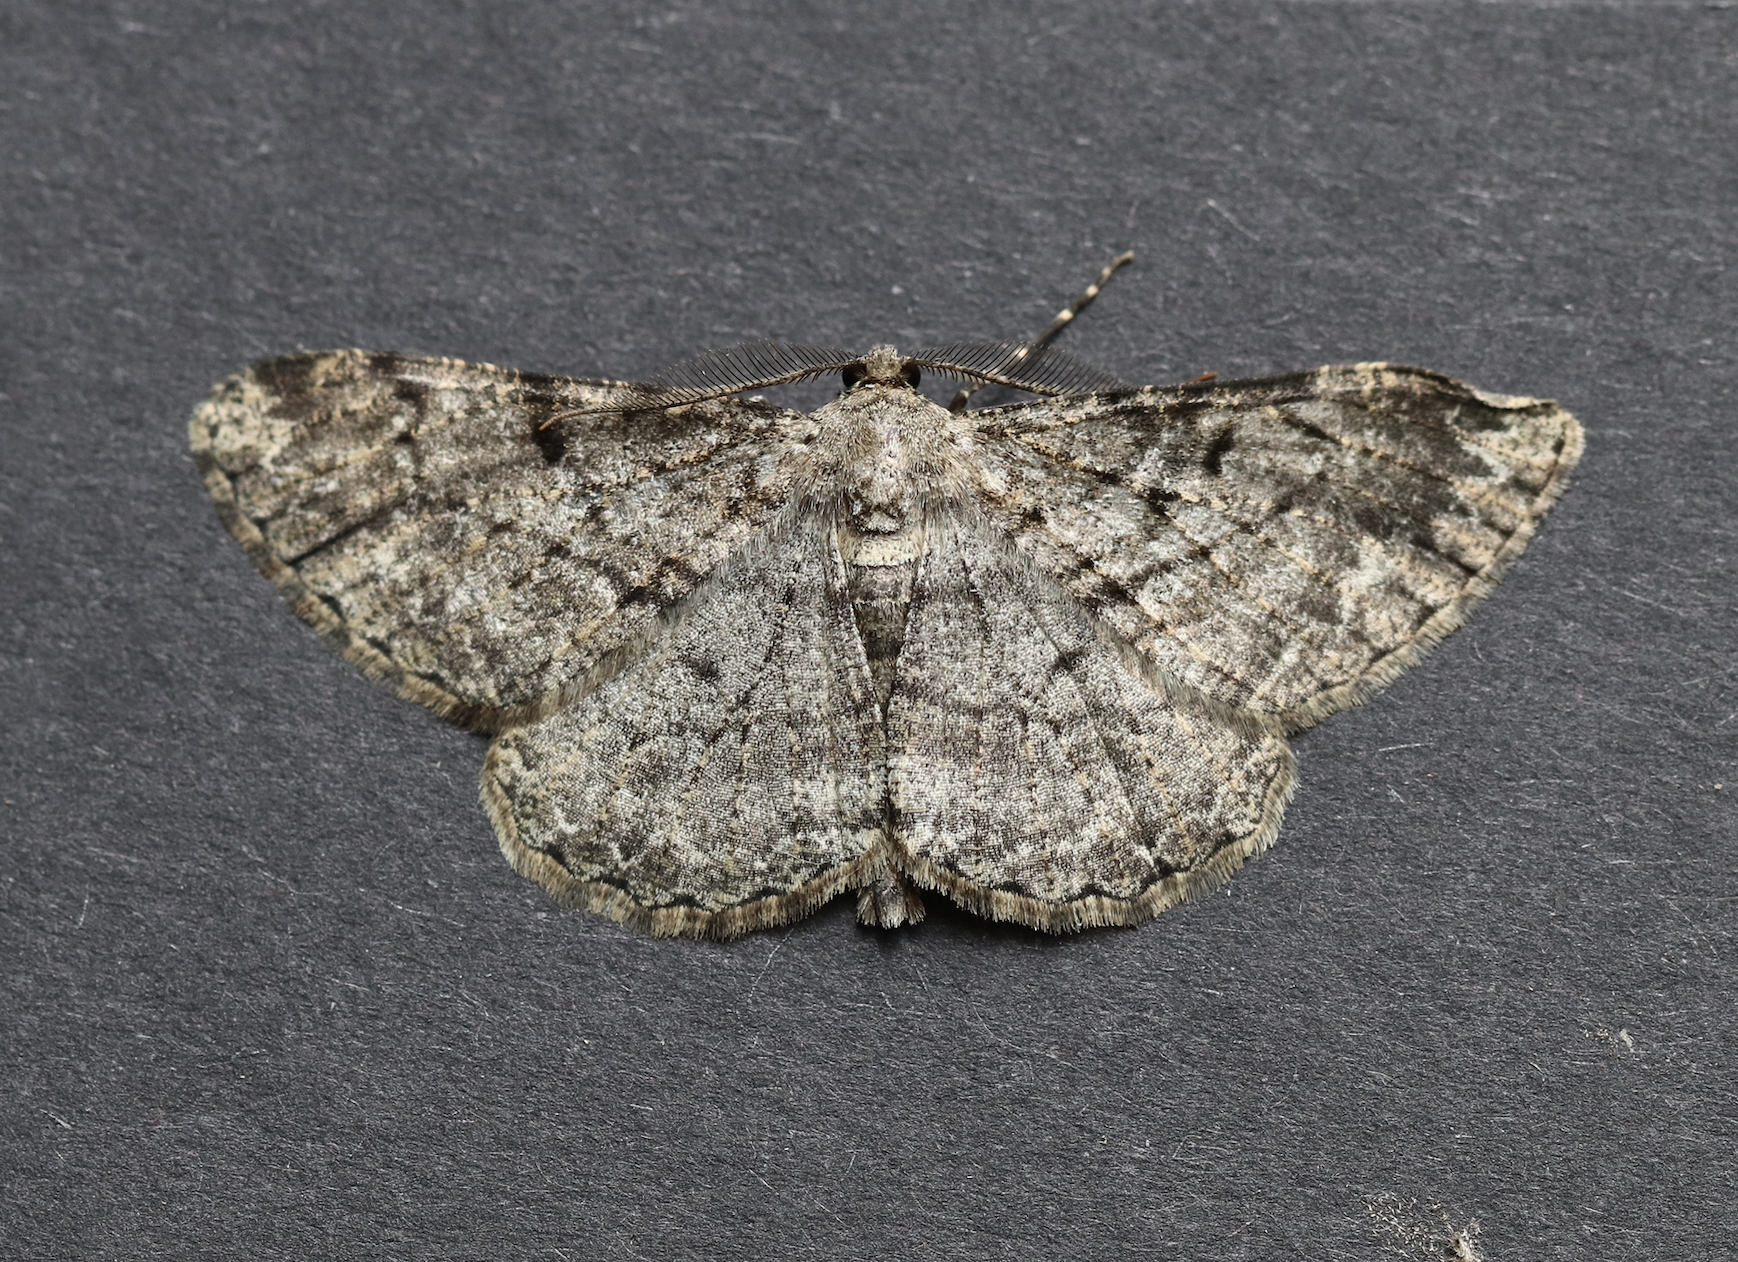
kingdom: Animalia
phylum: Arthropoda
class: Insecta
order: Lepidoptera
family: Geometridae
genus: Peribatodes
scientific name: Peribatodes rhomboidaria
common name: Willow beauty
